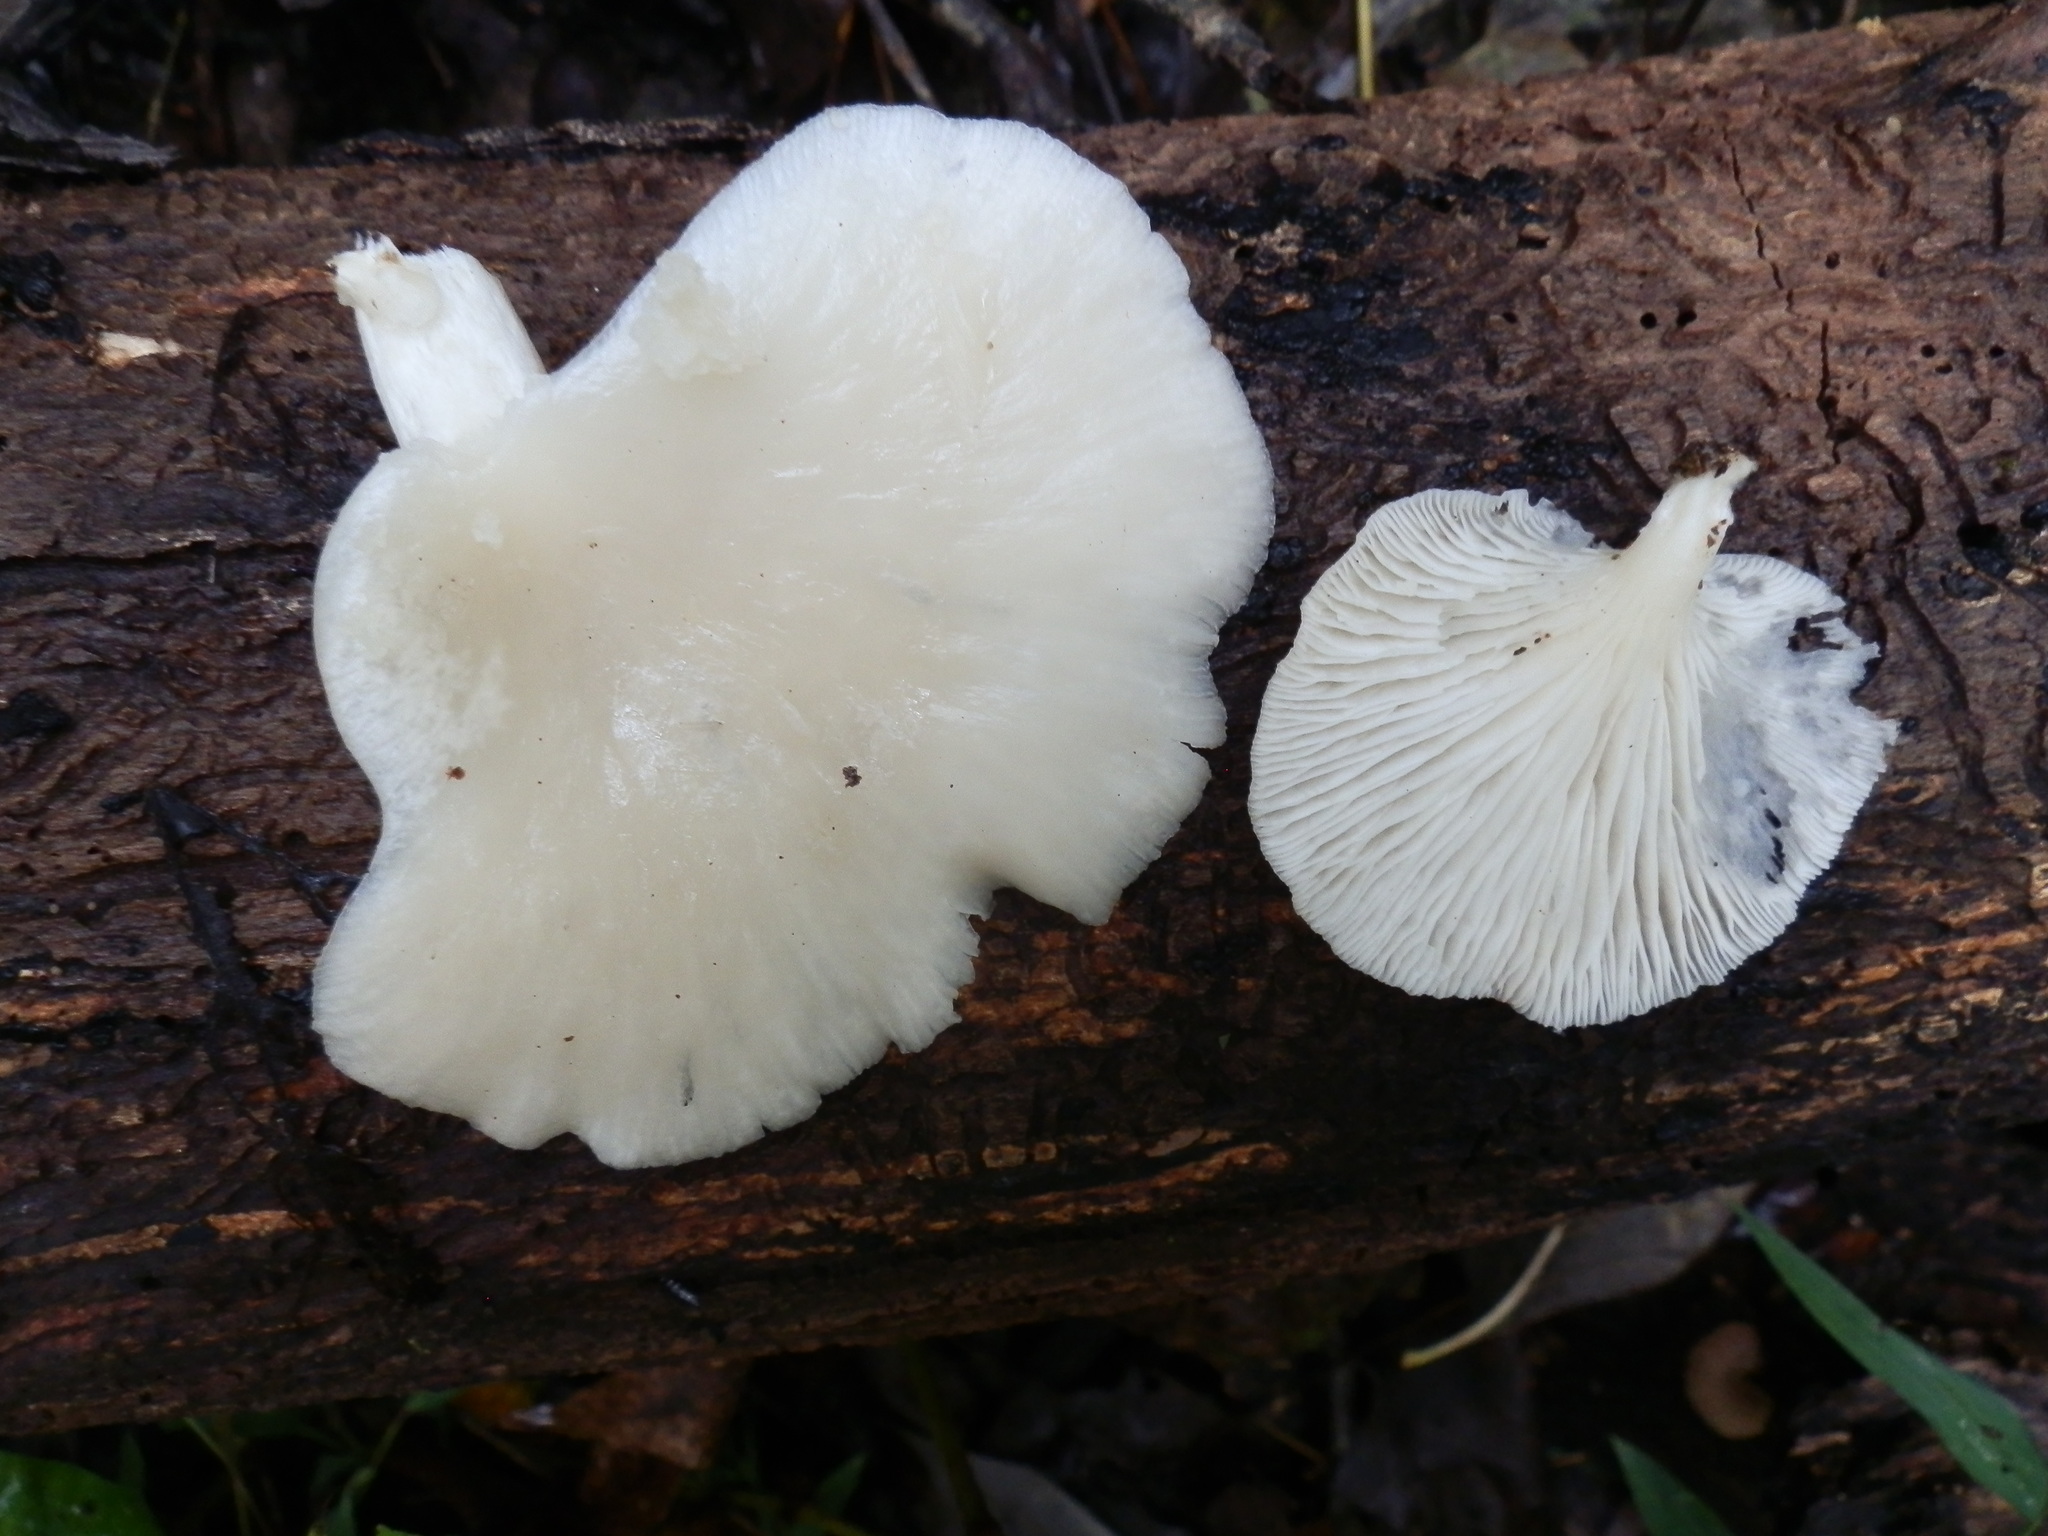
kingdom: Fungi
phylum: Basidiomycota
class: Agaricomycetes
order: Agaricales
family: Pleurotaceae
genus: Pleurotus
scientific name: Pleurotus pulmonarius
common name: Pale oyster
